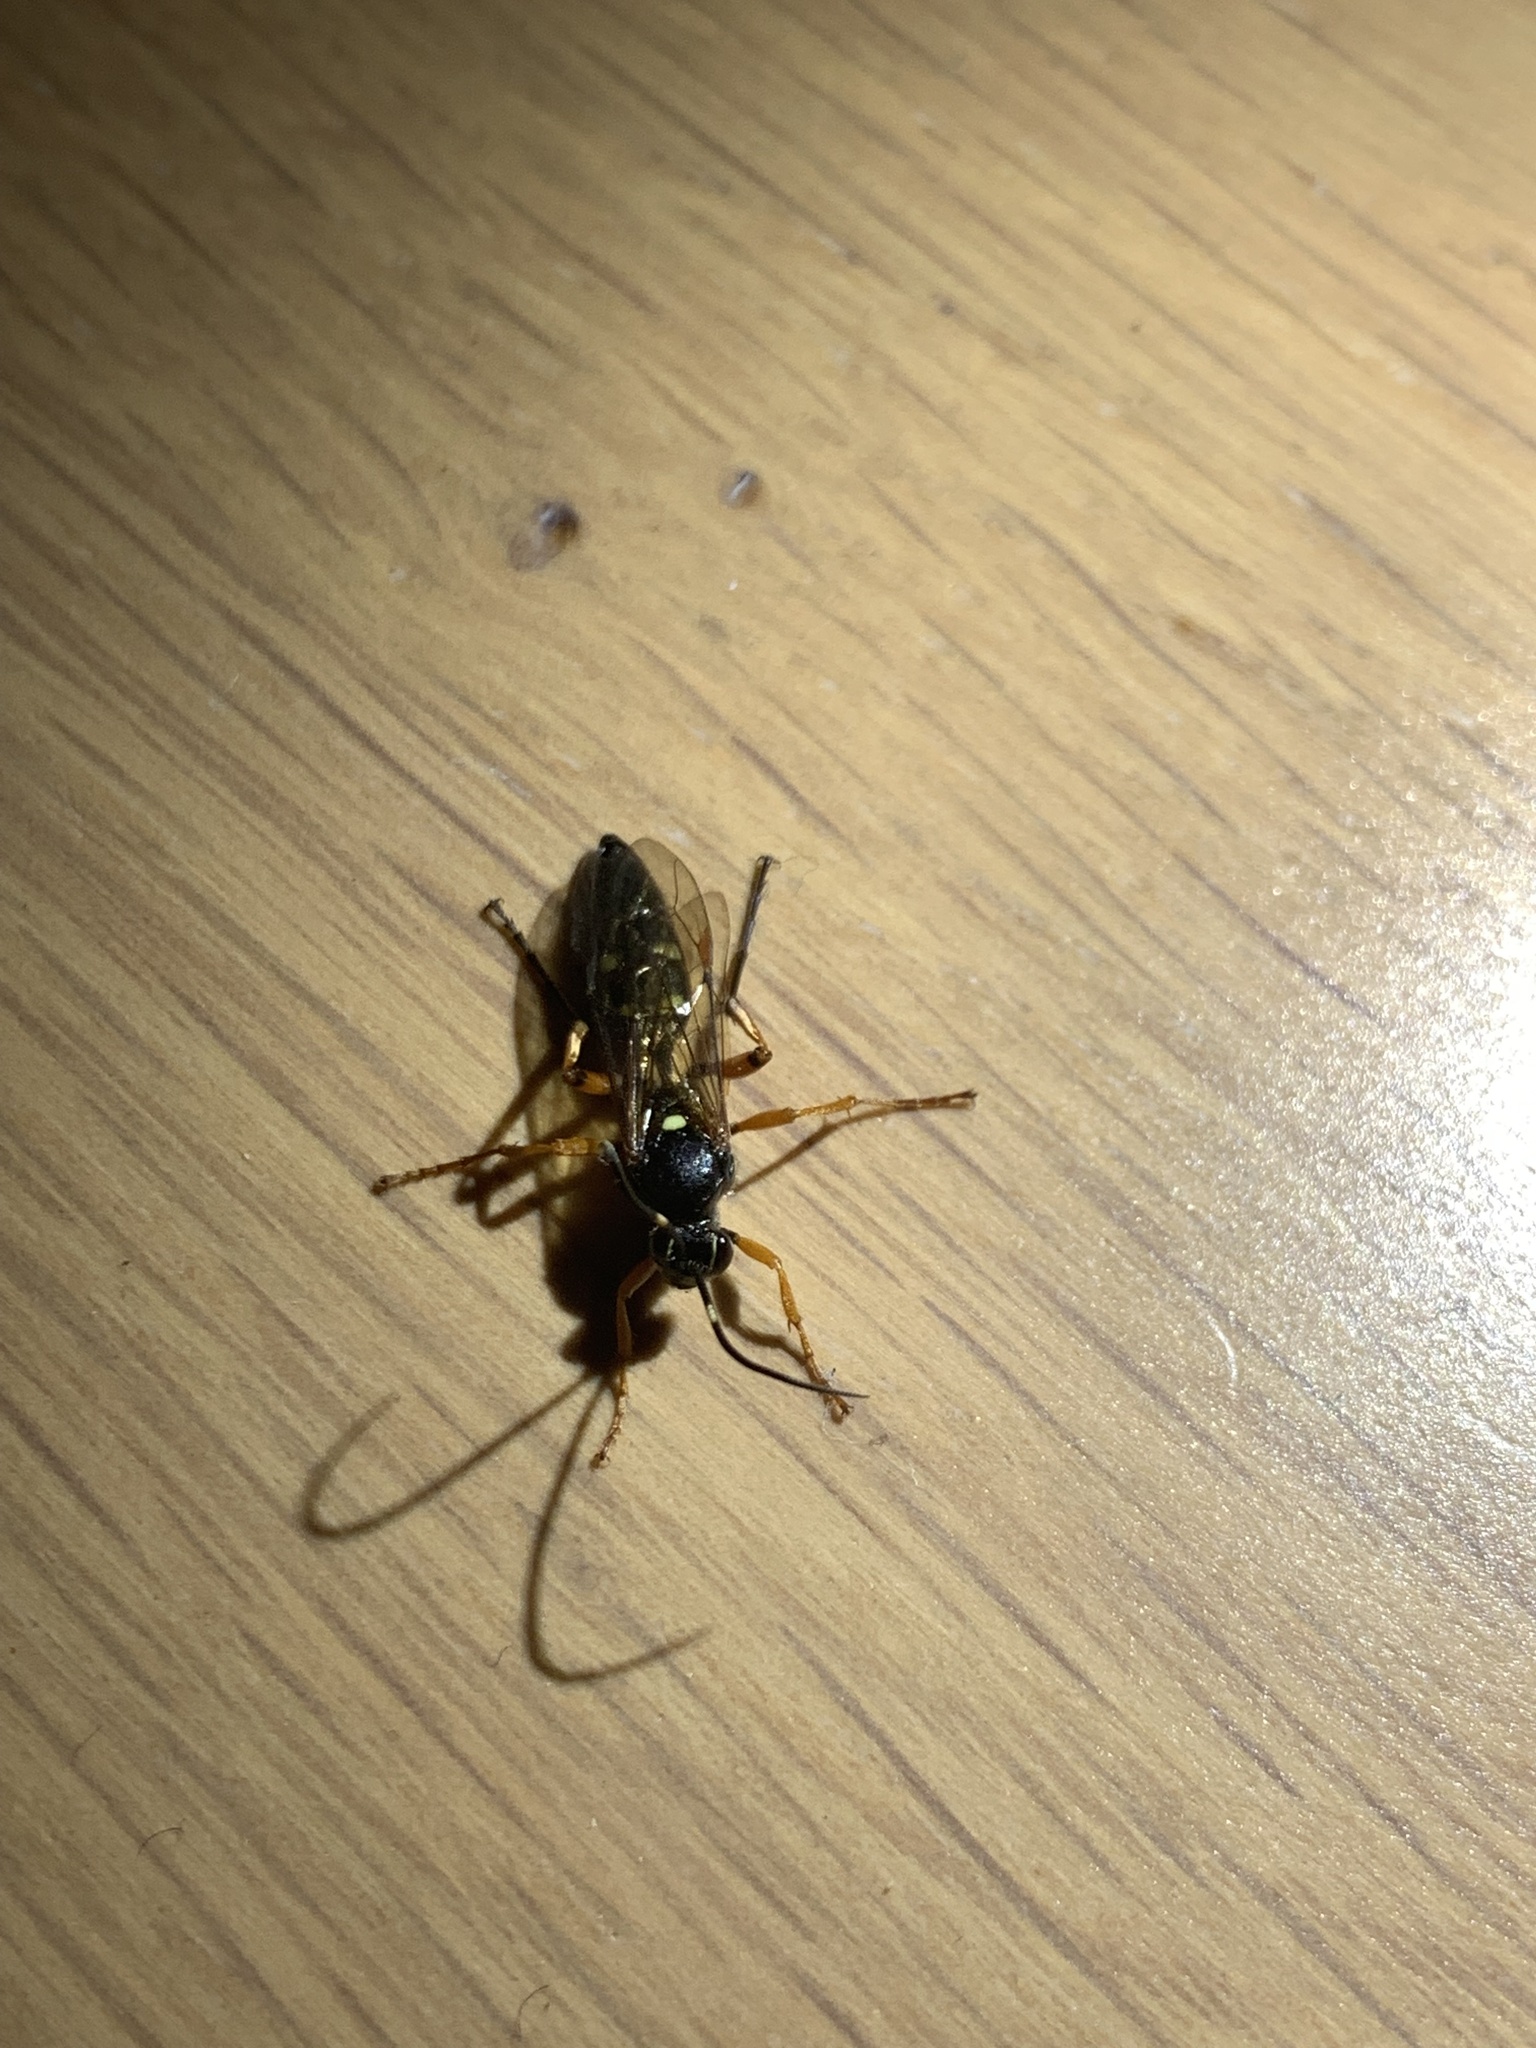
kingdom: Animalia
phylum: Arthropoda
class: Insecta
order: Hymenoptera
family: Ichneumonidae
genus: Diphyus
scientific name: Diphyus quadripunctorius
